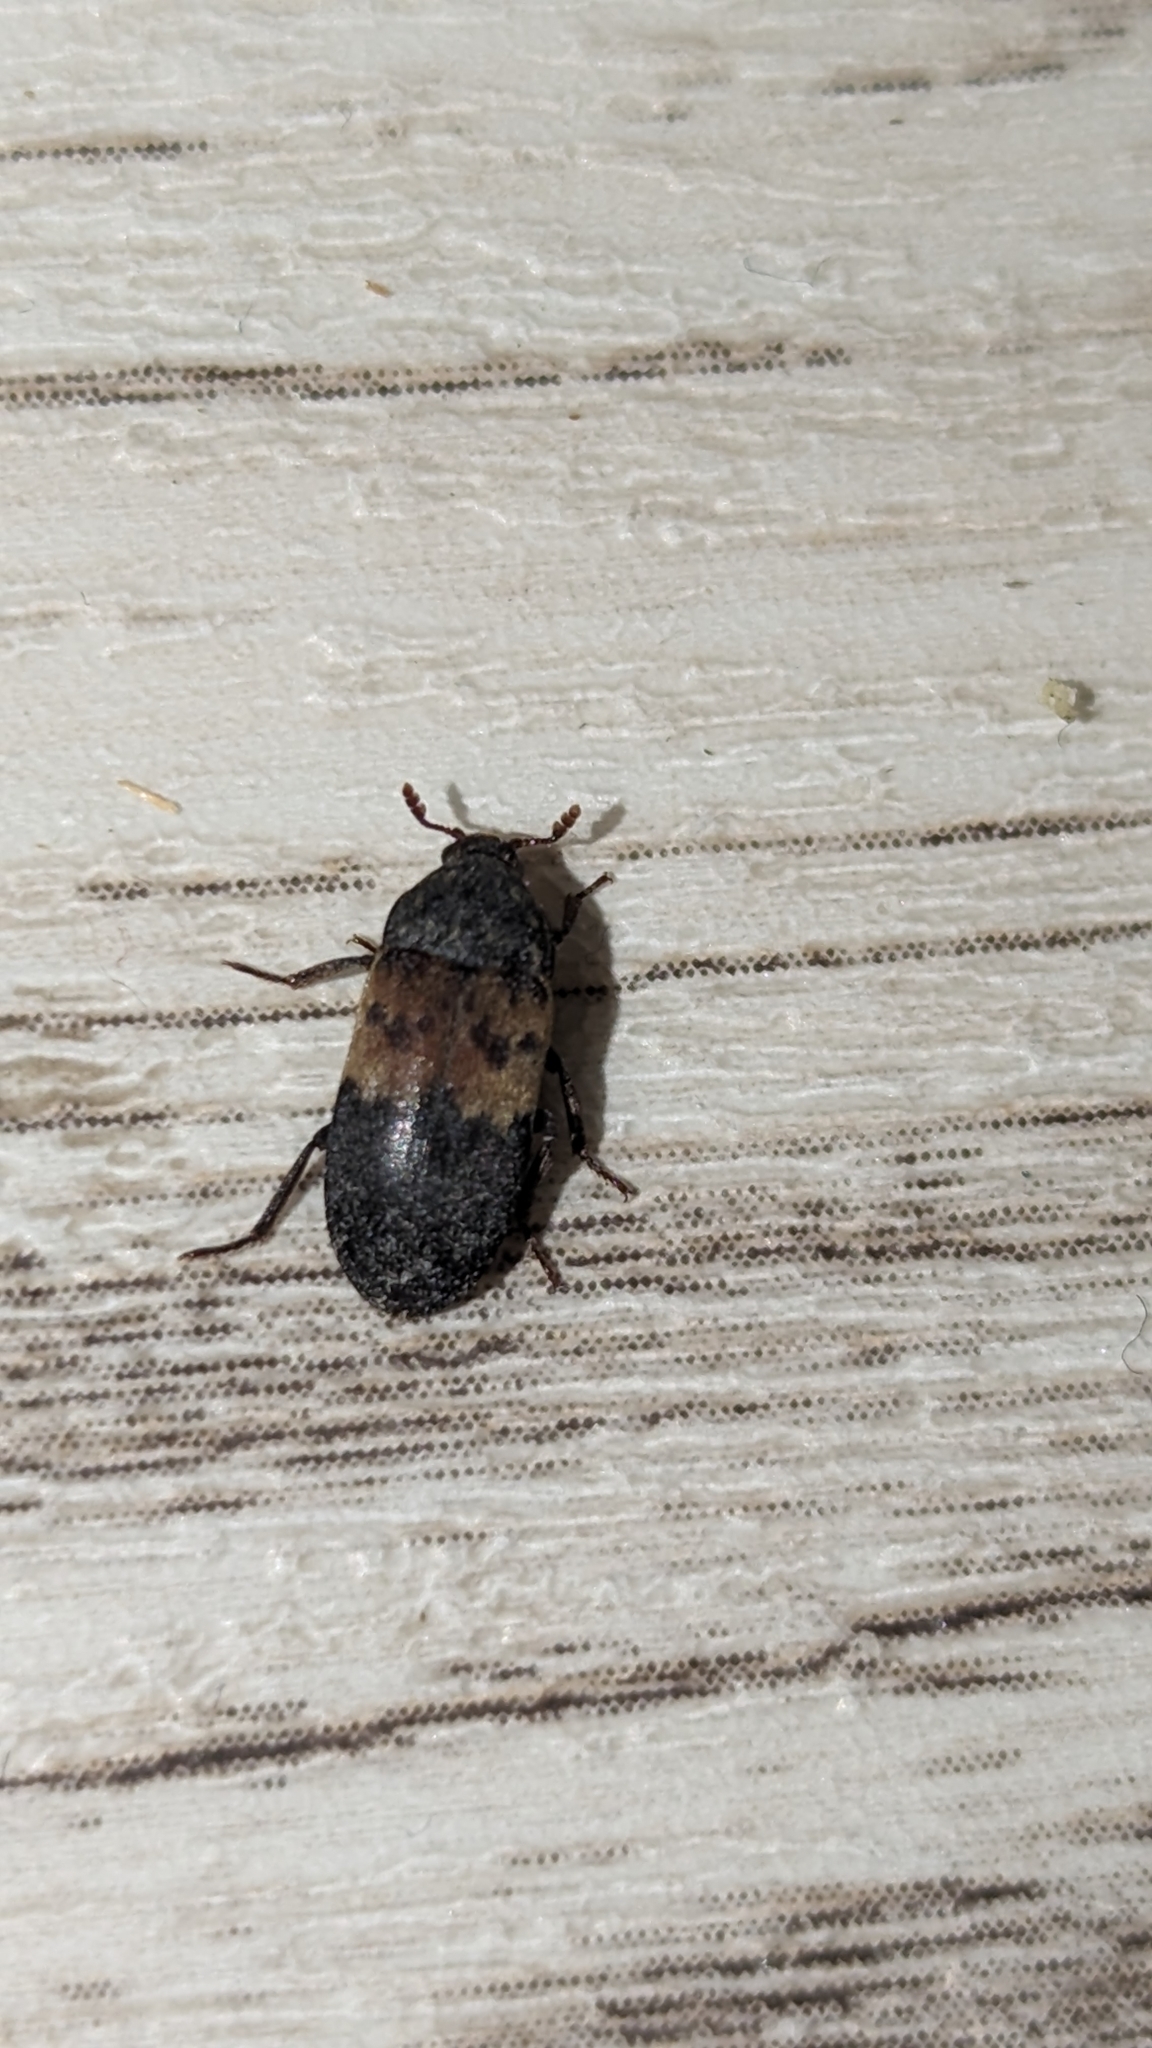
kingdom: Animalia
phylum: Arthropoda
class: Insecta
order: Coleoptera
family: Dermestidae
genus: Dermestes
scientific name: Dermestes lardarius
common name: Larder beetle
